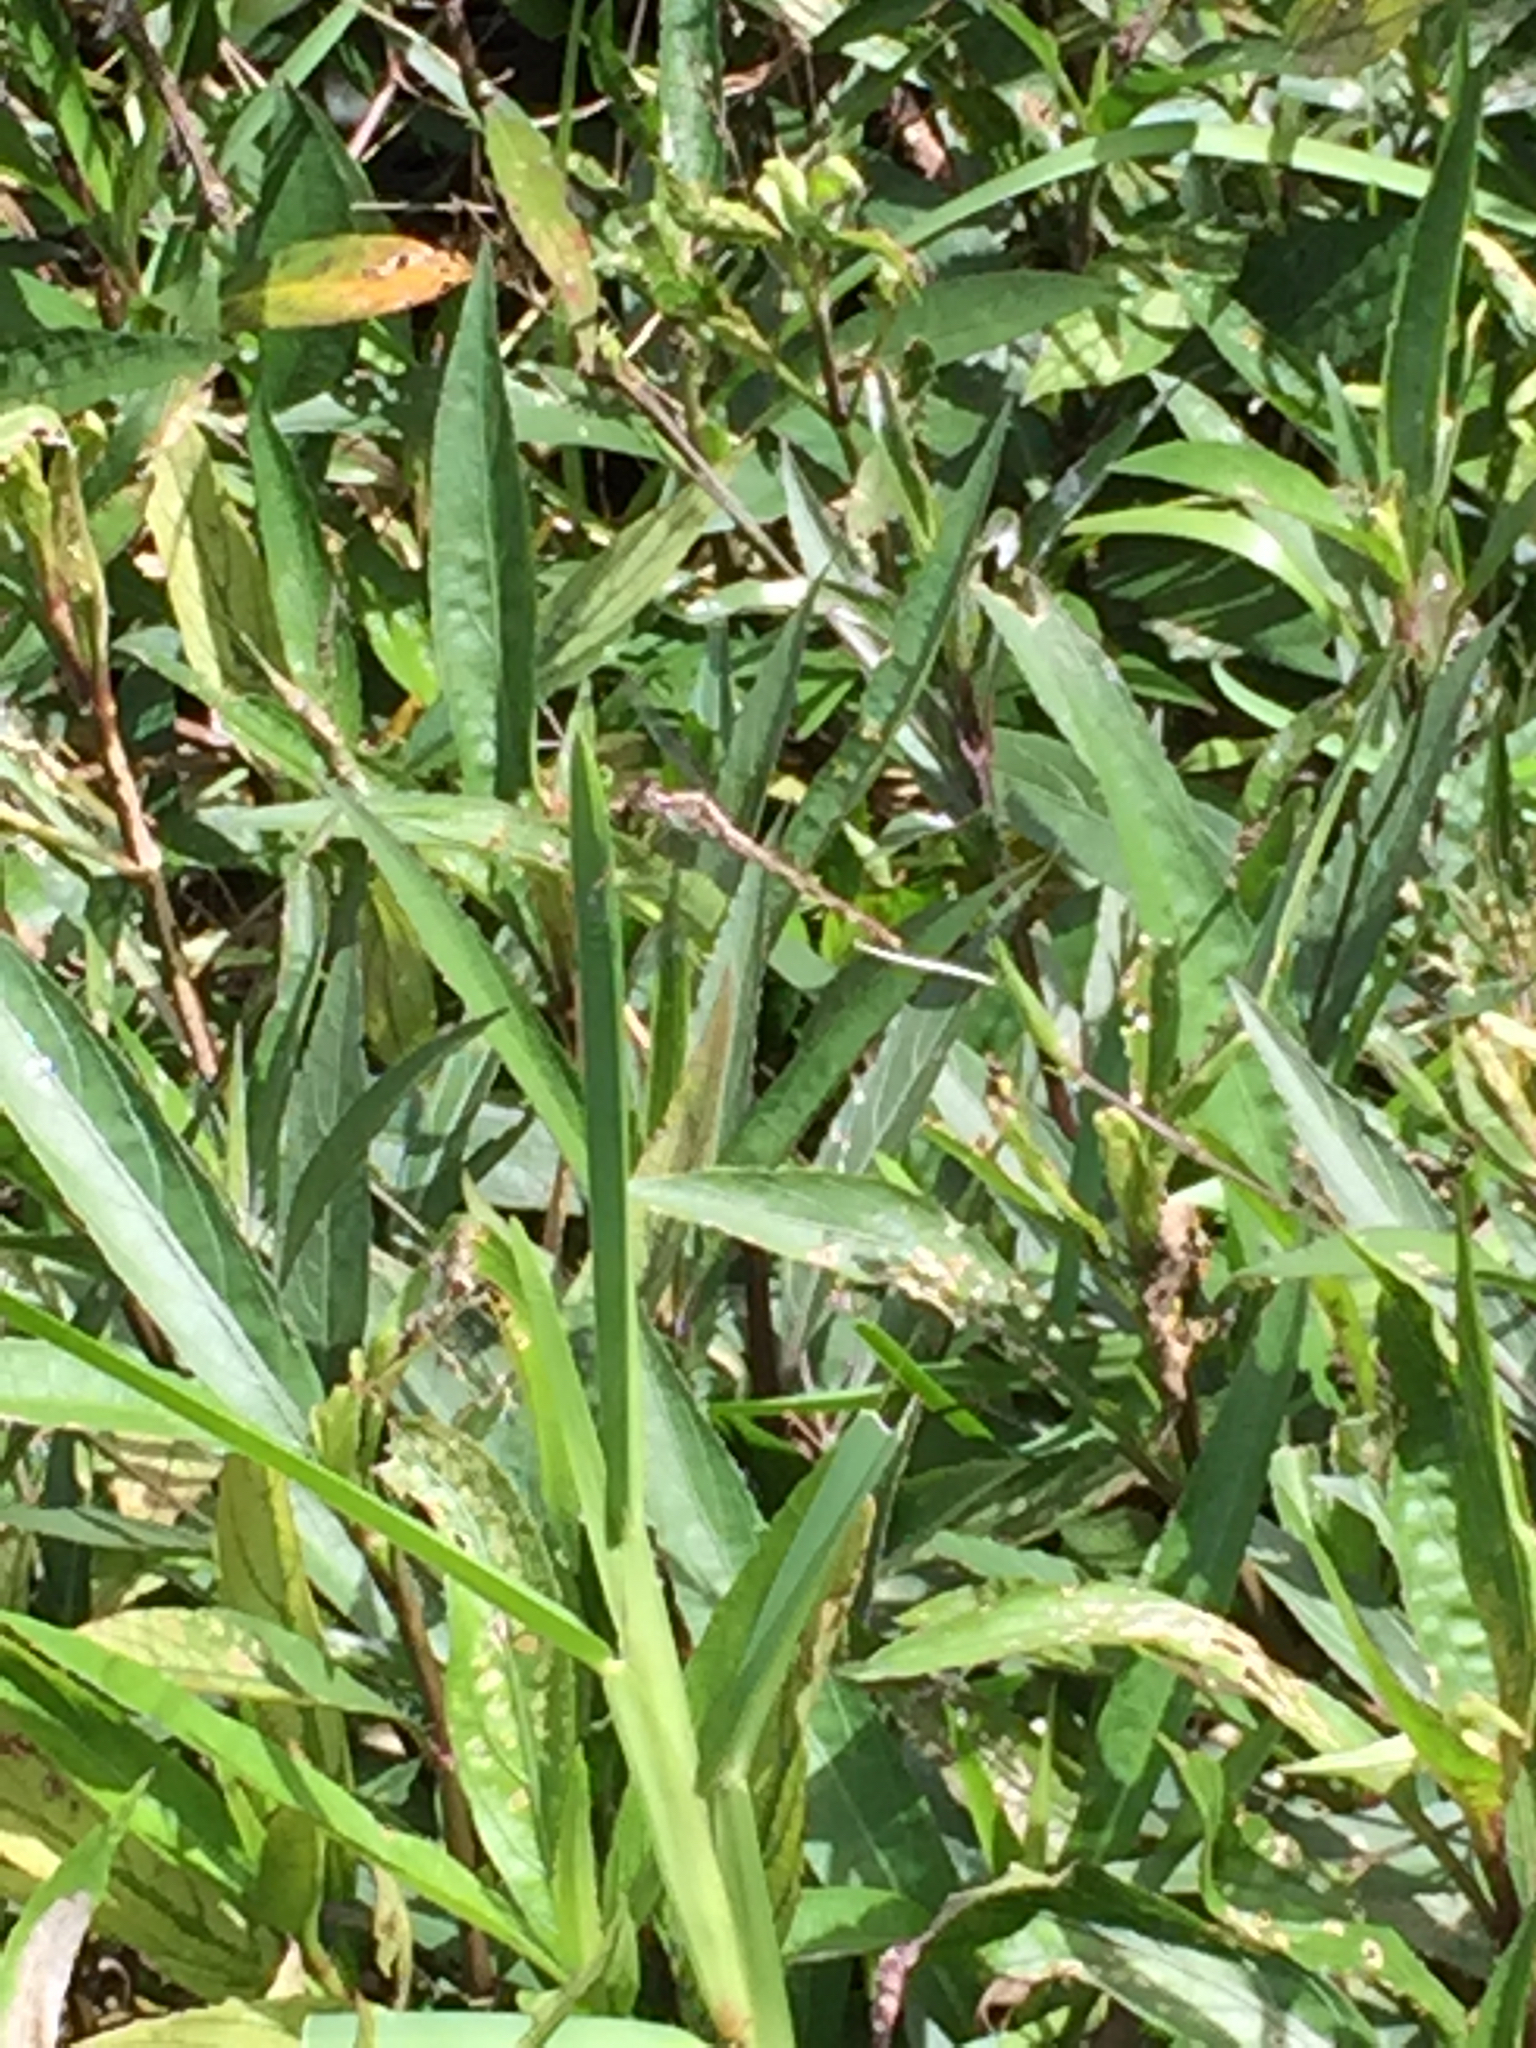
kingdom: Animalia
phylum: Arthropoda
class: Insecta
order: Odonata
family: Libellulidae
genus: Erythrodiplax
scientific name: Erythrodiplax umbrata
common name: Band-winged dragonlet
